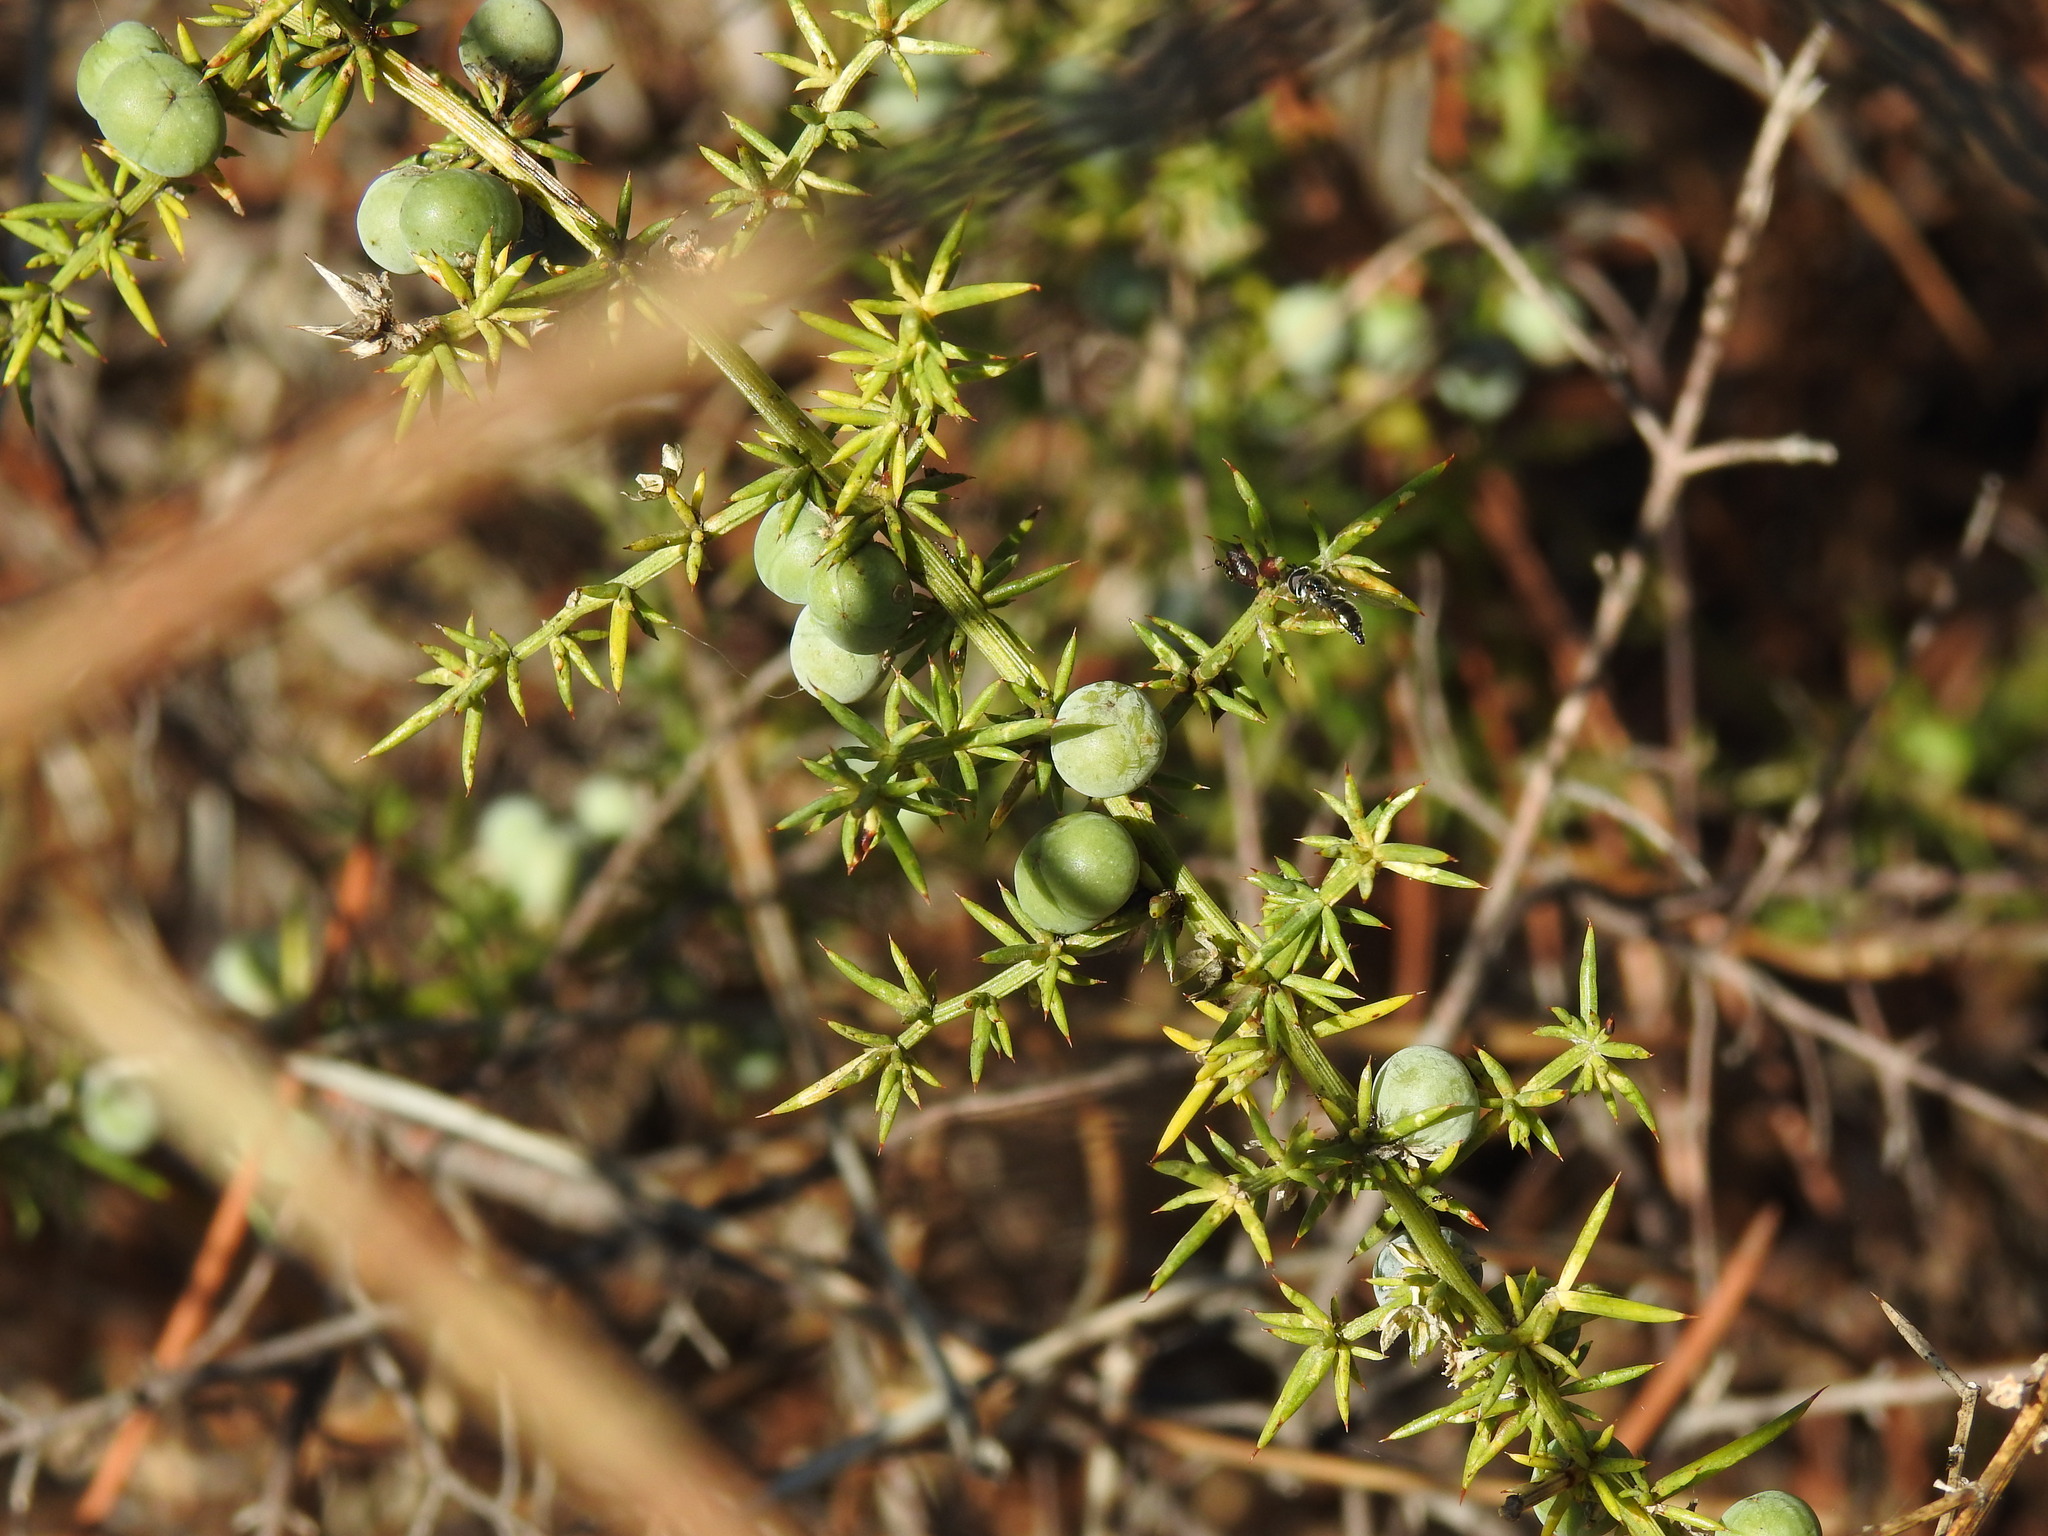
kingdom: Plantae
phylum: Tracheophyta
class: Liliopsida
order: Asparagales
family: Asparagaceae
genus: Asparagus
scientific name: Asparagus aphyllus
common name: Mediterranean asparagus
